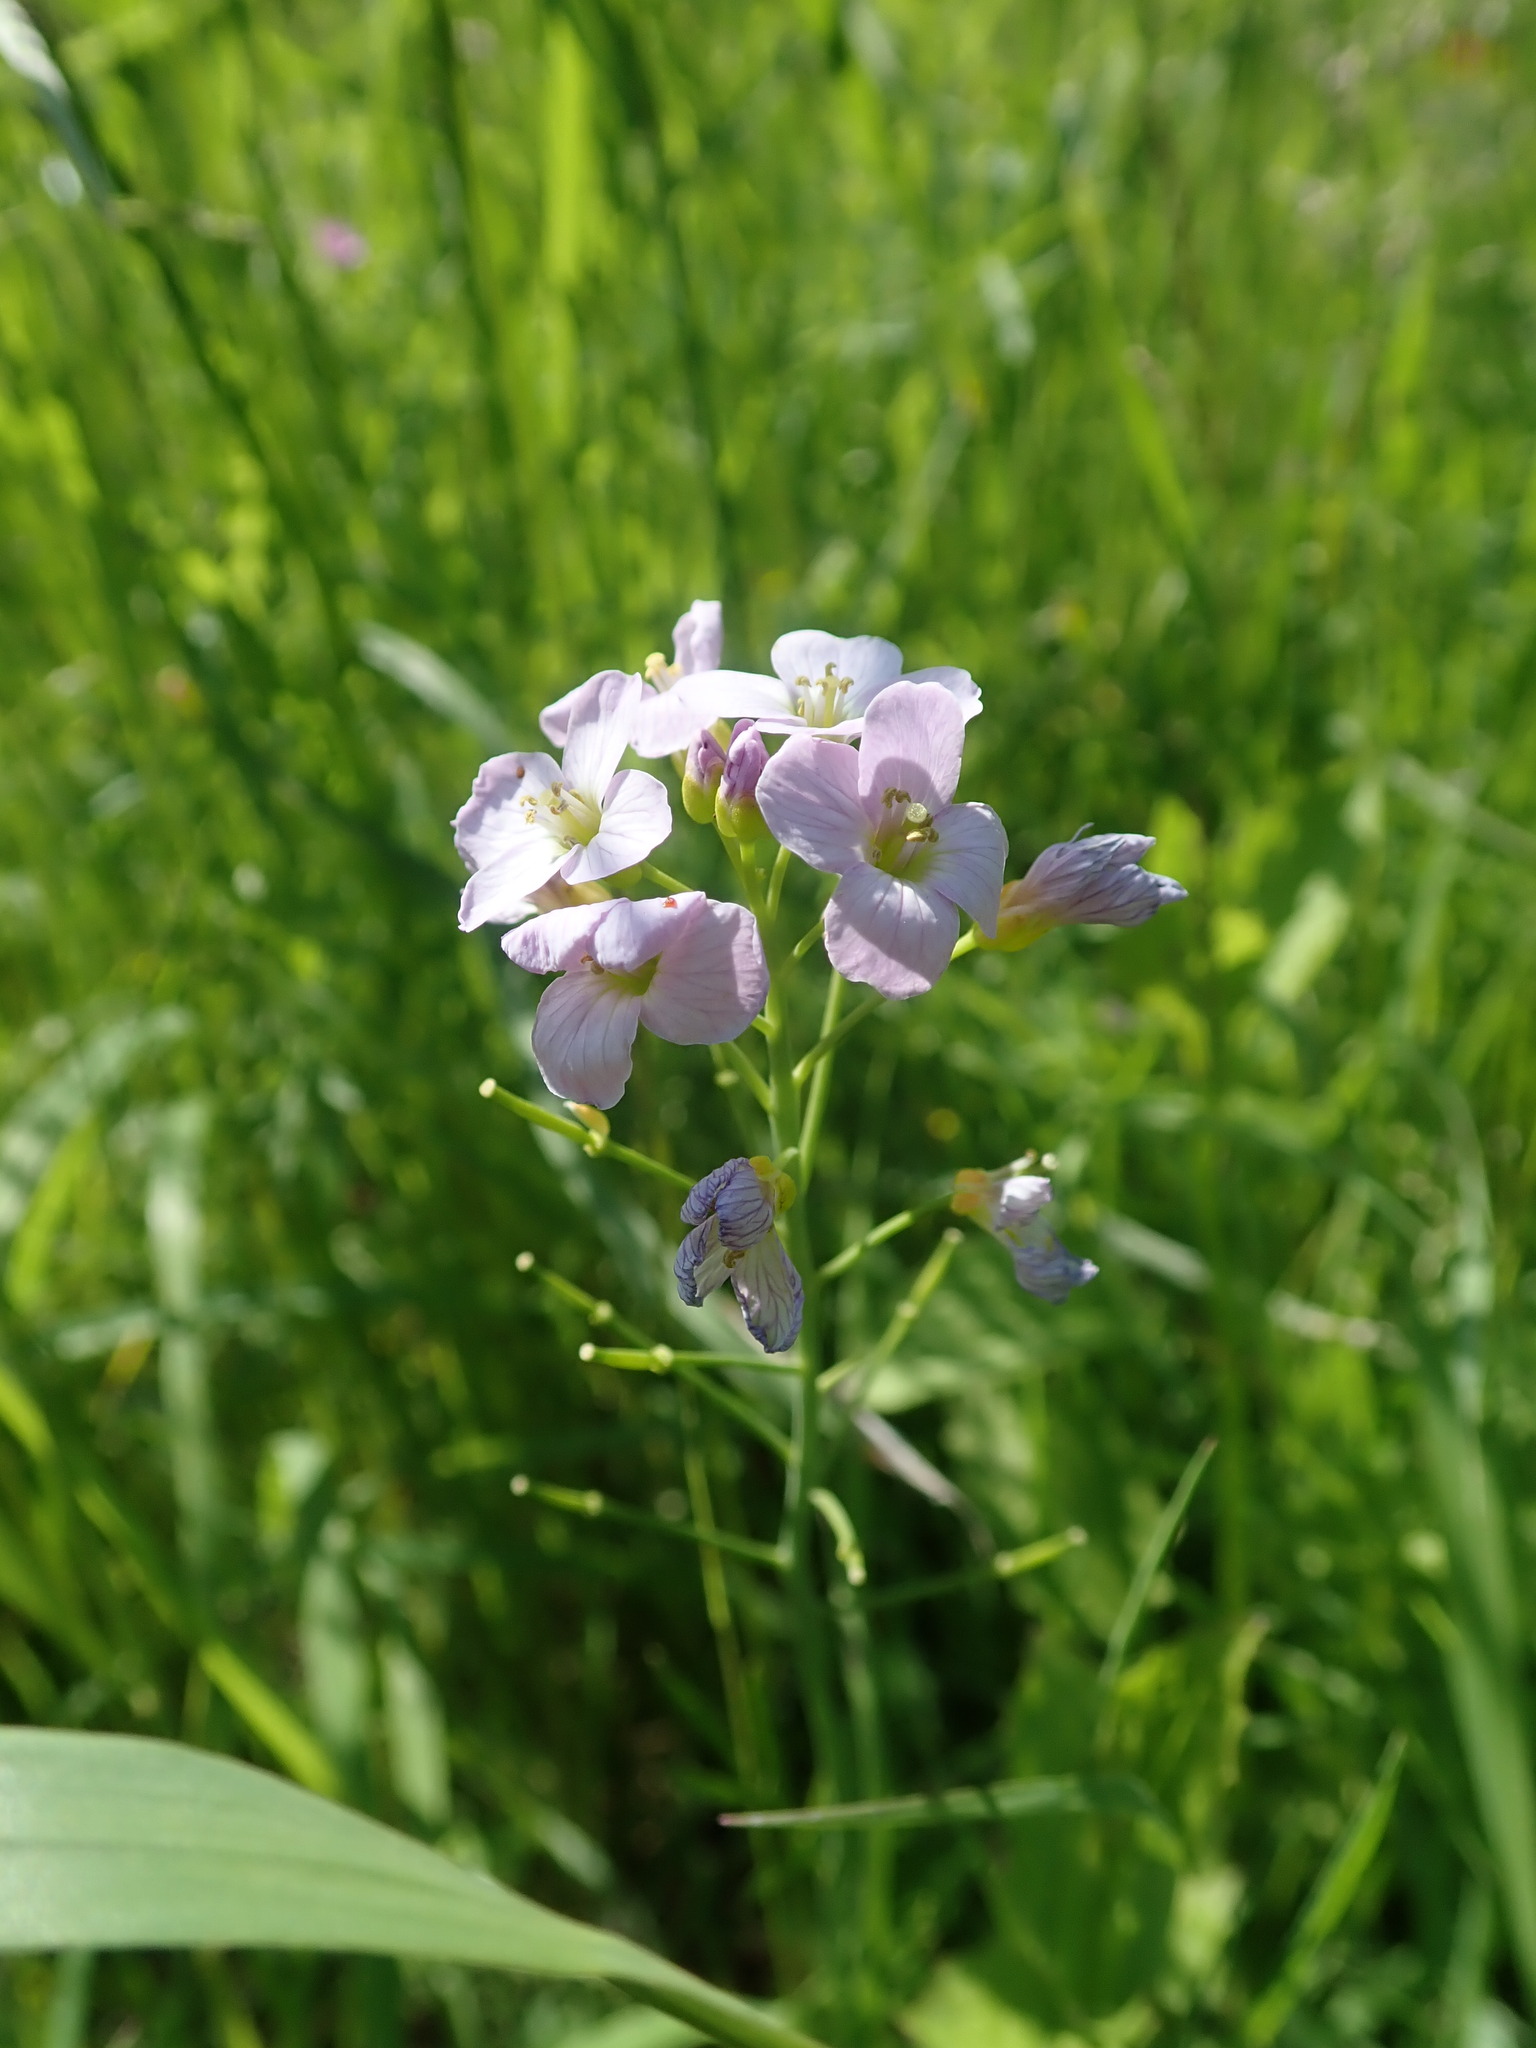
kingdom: Plantae
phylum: Tracheophyta
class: Magnoliopsida
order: Brassicales
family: Brassicaceae
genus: Cardamine
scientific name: Cardamine pratensis
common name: Cuckoo flower
